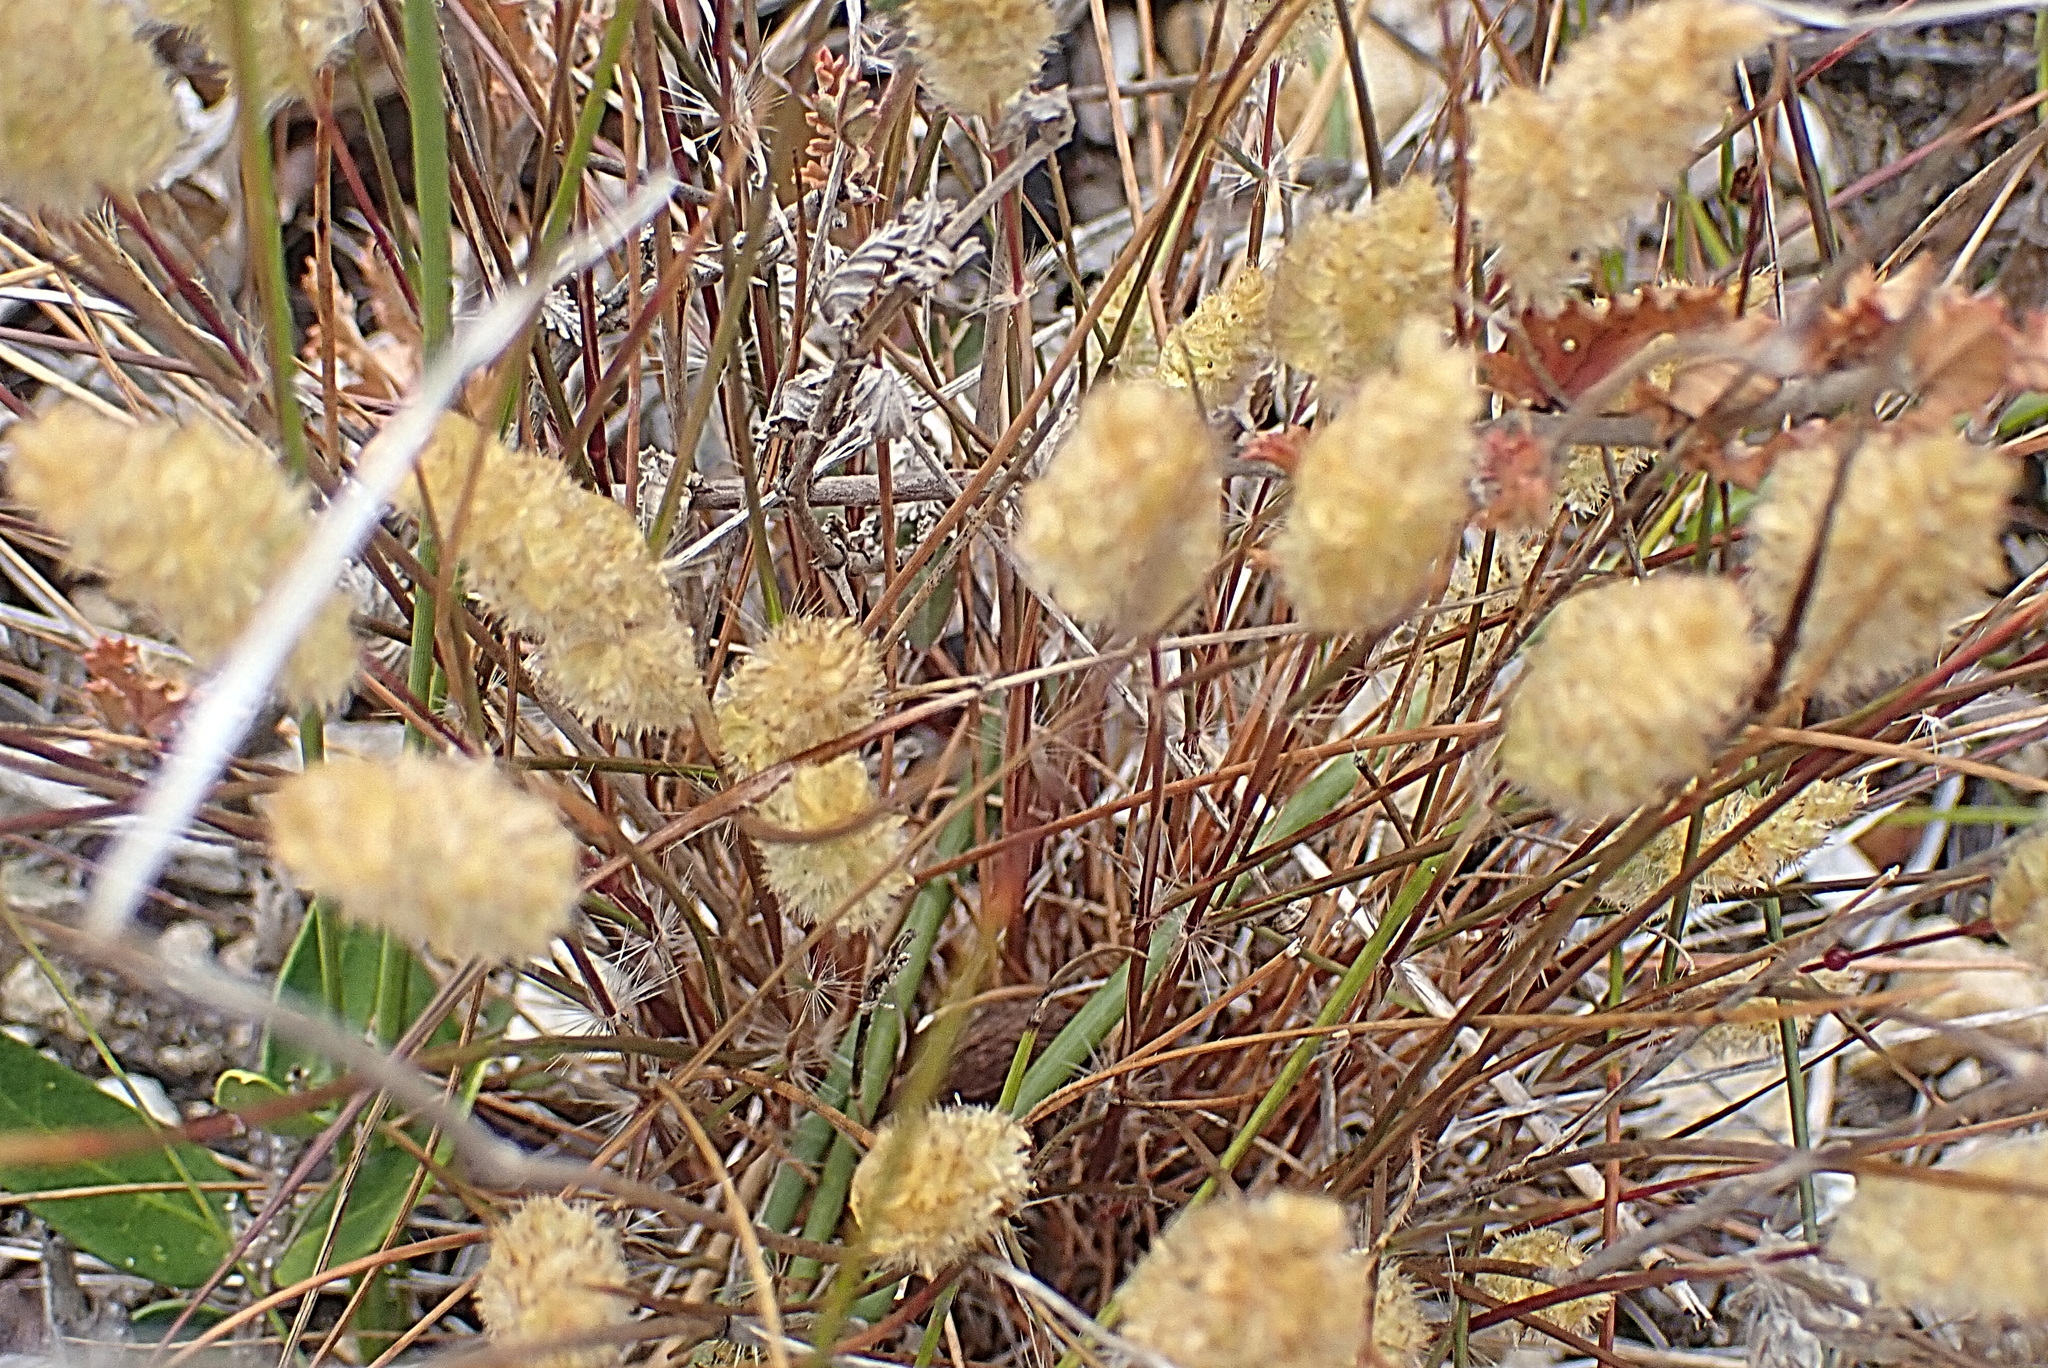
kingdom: Plantae
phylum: Tracheophyta
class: Liliopsida
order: Poales
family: Poaceae
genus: Rostraria
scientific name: Rostraria cristata
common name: Mediterranean hair-grass
